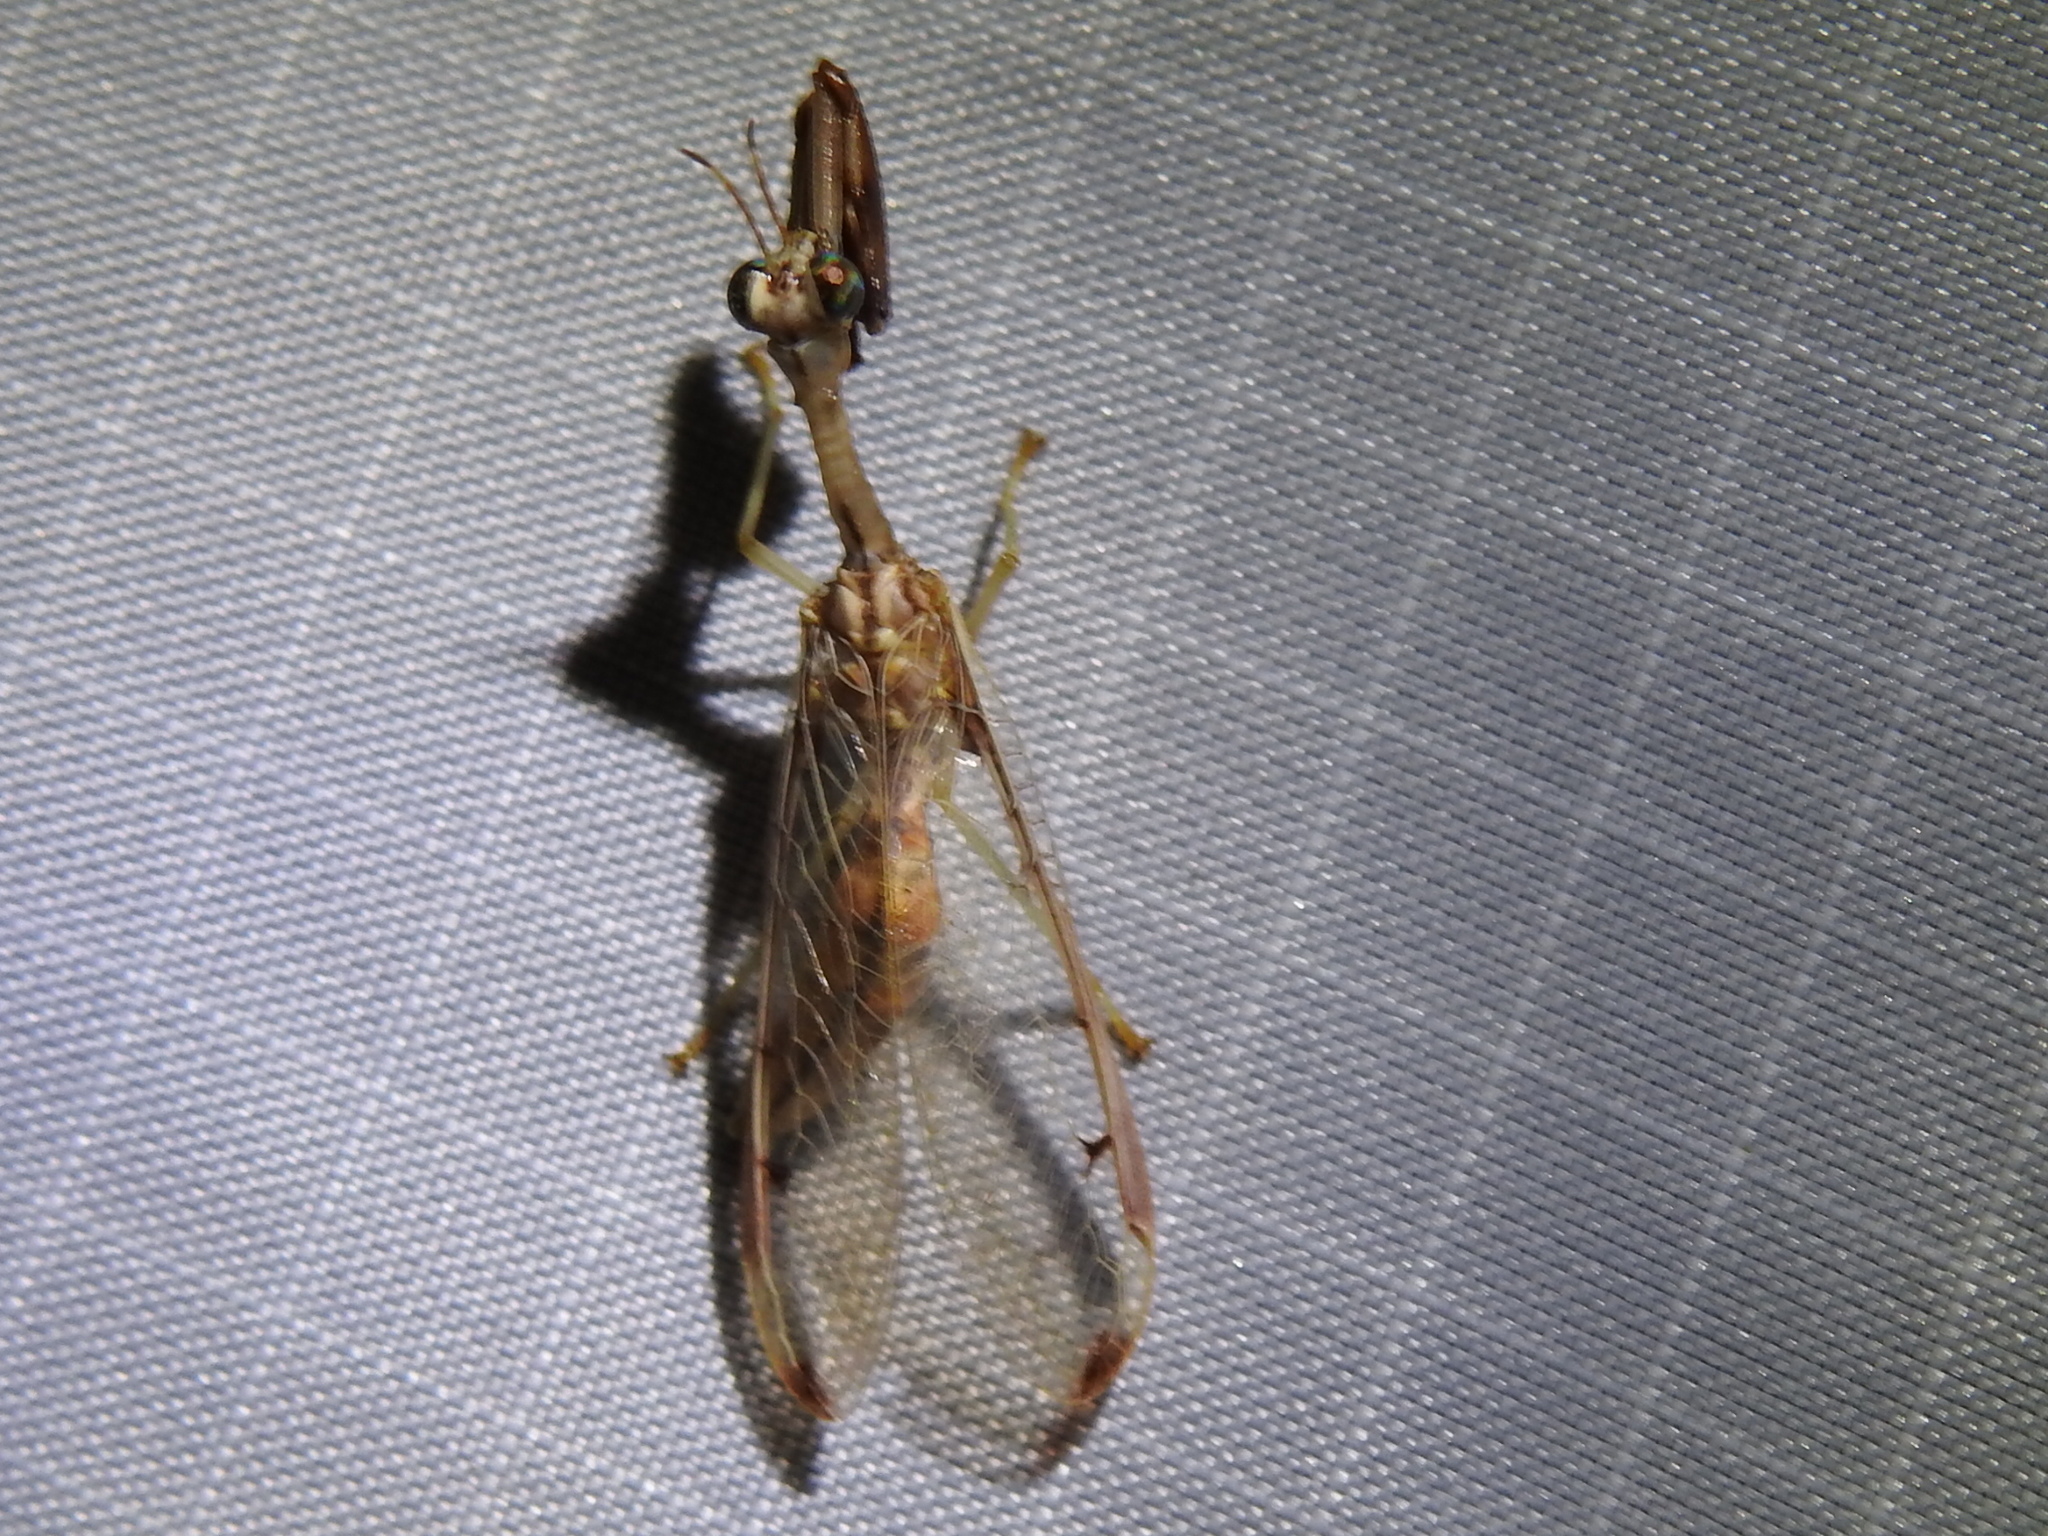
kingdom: Animalia
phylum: Arthropoda
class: Insecta
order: Neuroptera
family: Mantispidae
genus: Dicromantispa
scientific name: Dicromantispa interrupta
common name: Four-spotted mantidfly
